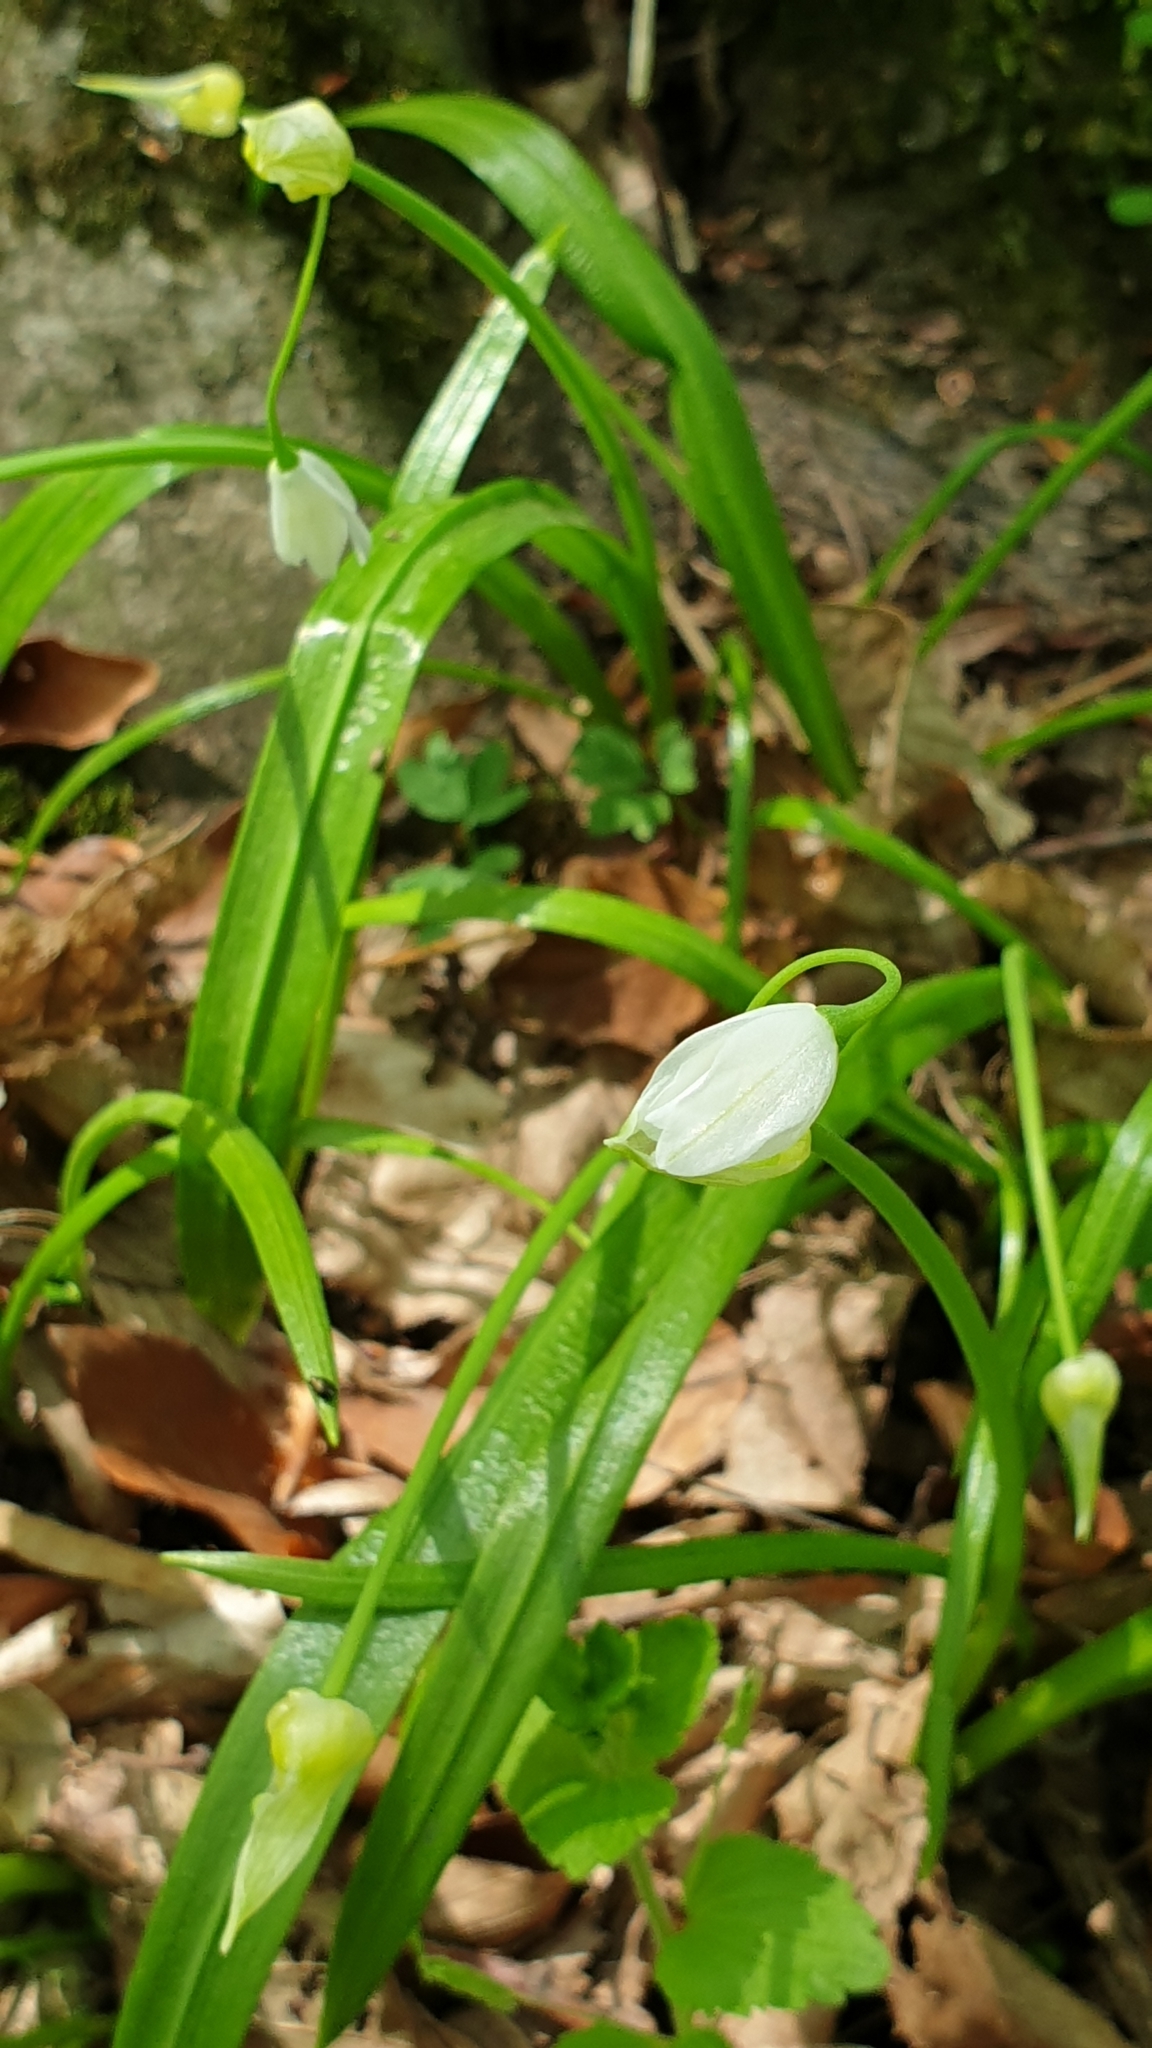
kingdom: Plantae
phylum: Tracheophyta
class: Liliopsida
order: Asparagales
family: Amaryllidaceae
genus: Allium
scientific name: Allium paradoxum
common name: Few-flowered garlic
